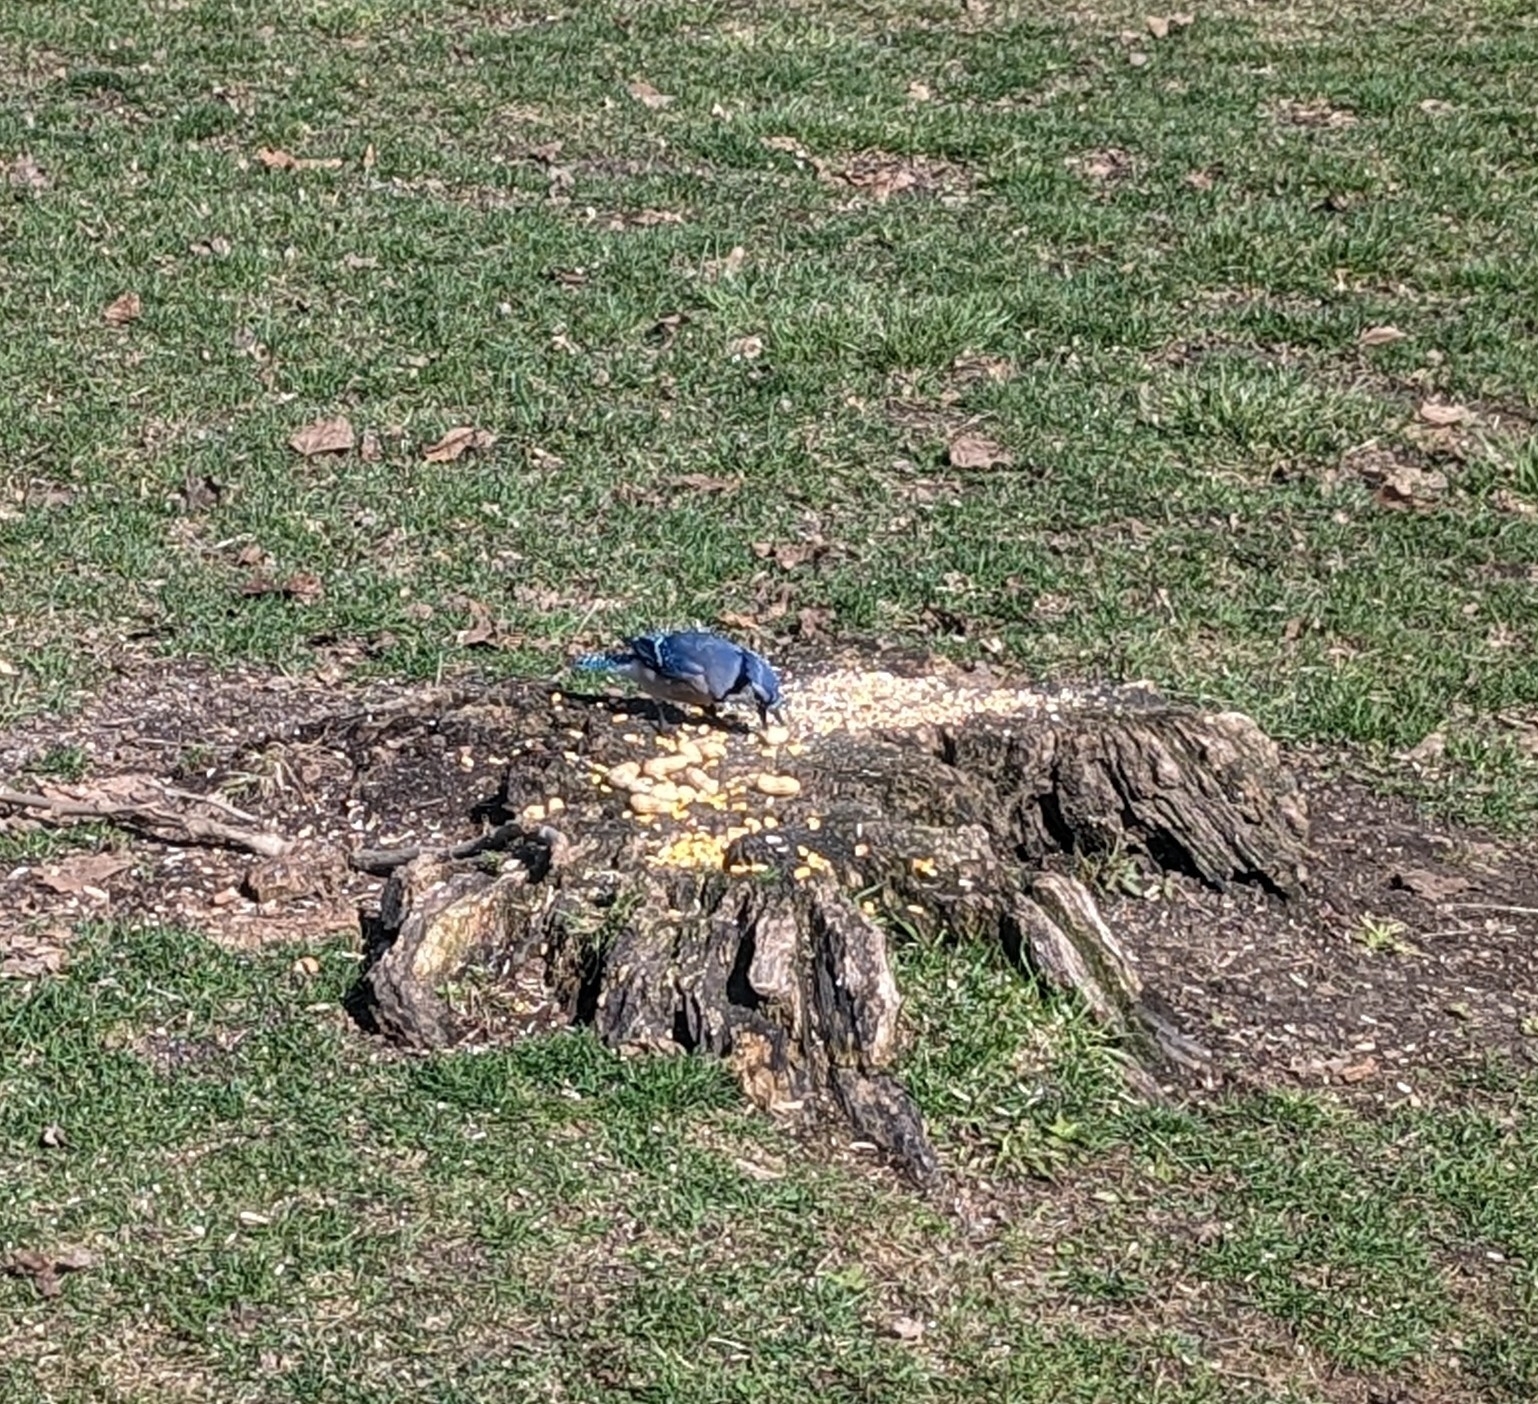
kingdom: Animalia
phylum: Chordata
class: Aves
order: Passeriformes
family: Corvidae
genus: Cyanocitta
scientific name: Cyanocitta cristata
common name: Blue jay
